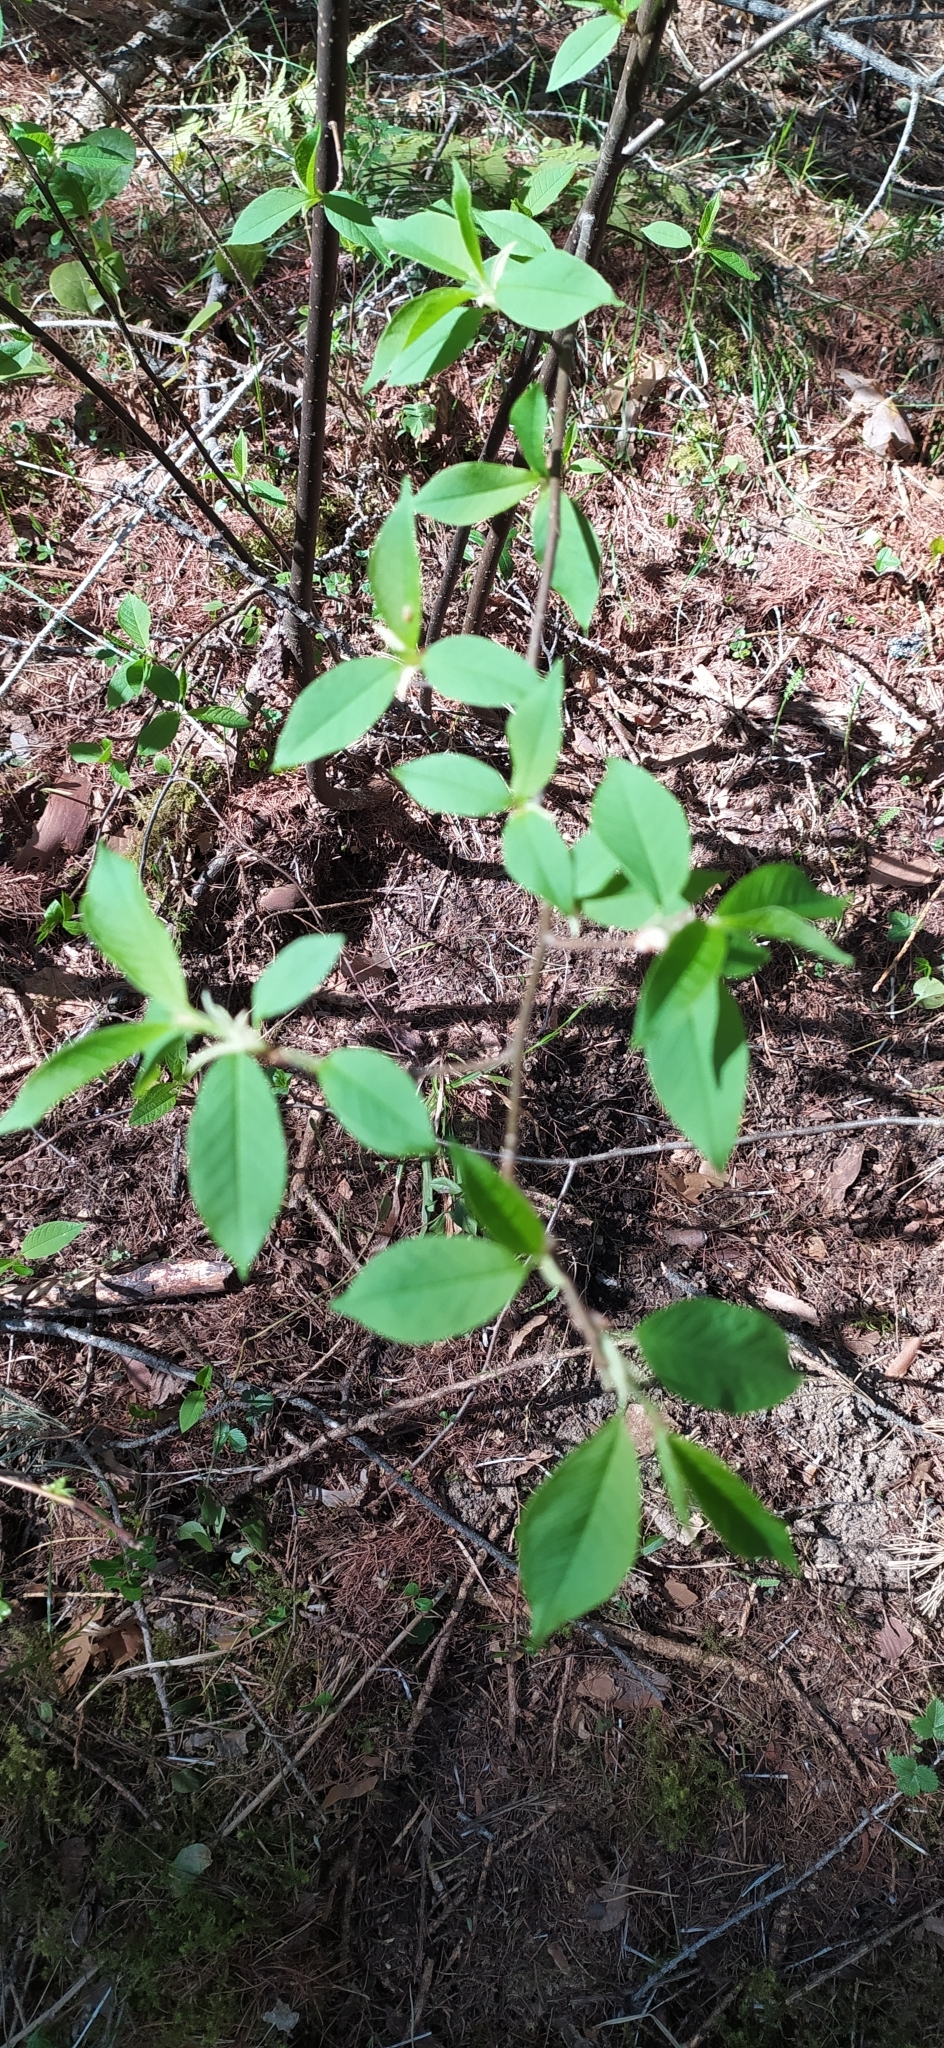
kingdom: Plantae
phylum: Tracheophyta
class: Magnoliopsida
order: Rosales
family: Rosaceae
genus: Prunus
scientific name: Prunus padus
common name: Bird cherry
